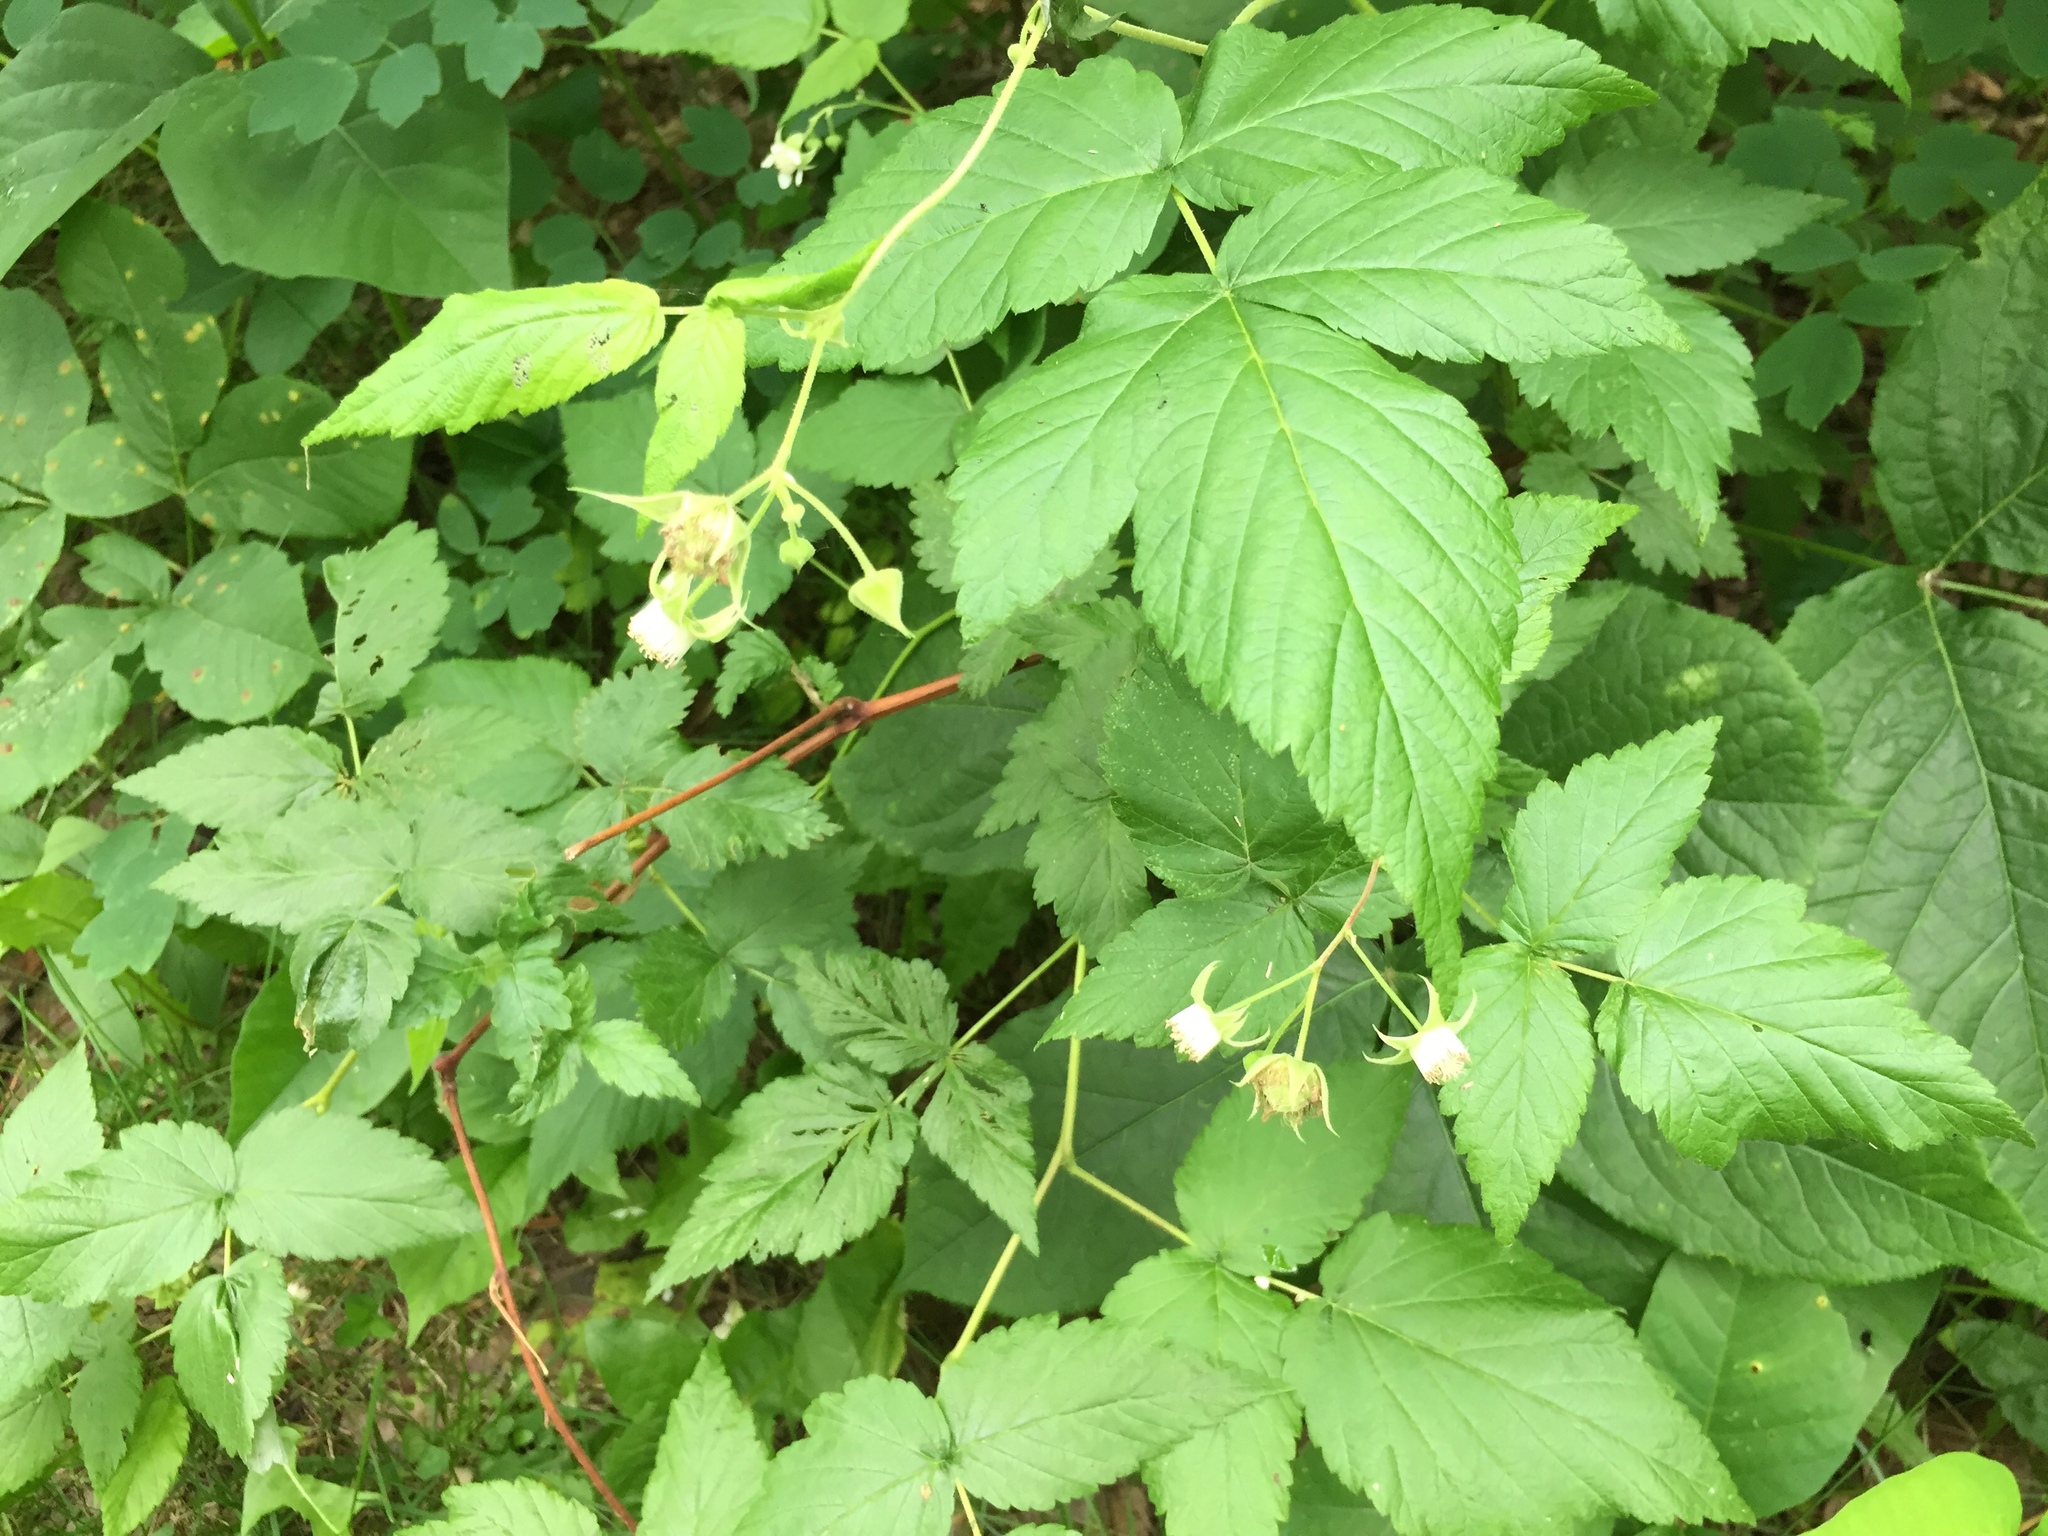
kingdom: Plantae
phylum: Tracheophyta
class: Magnoliopsida
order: Rosales
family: Rosaceae
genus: Rubus
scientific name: Rubus idaeus
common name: Raspberry
